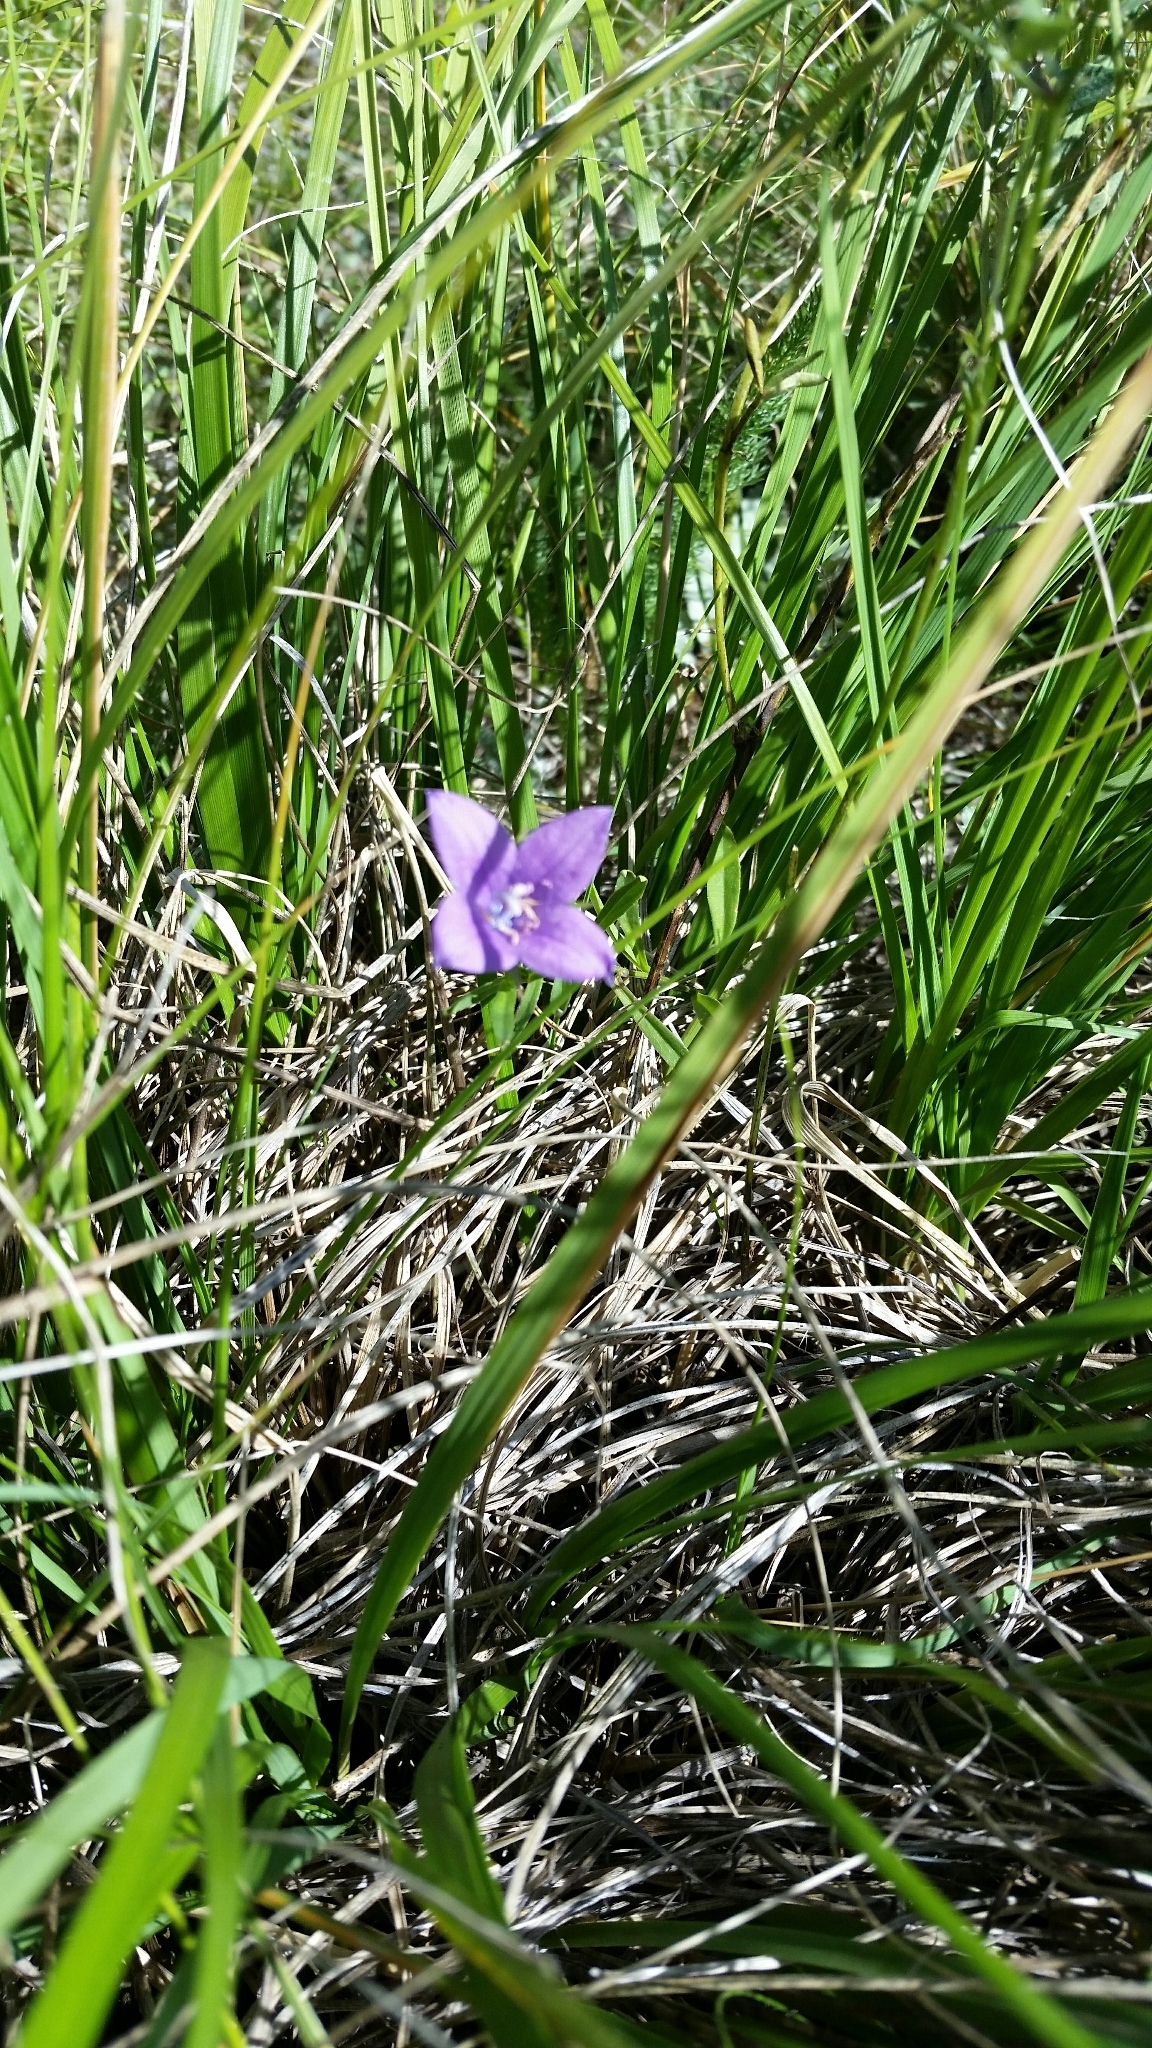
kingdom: Plantae
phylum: Tracheophyta
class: Magnoliopsida
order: Asterales
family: Campanulaceae
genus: Campanula
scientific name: Campanula parryi
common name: Rocky mountain bellflower
